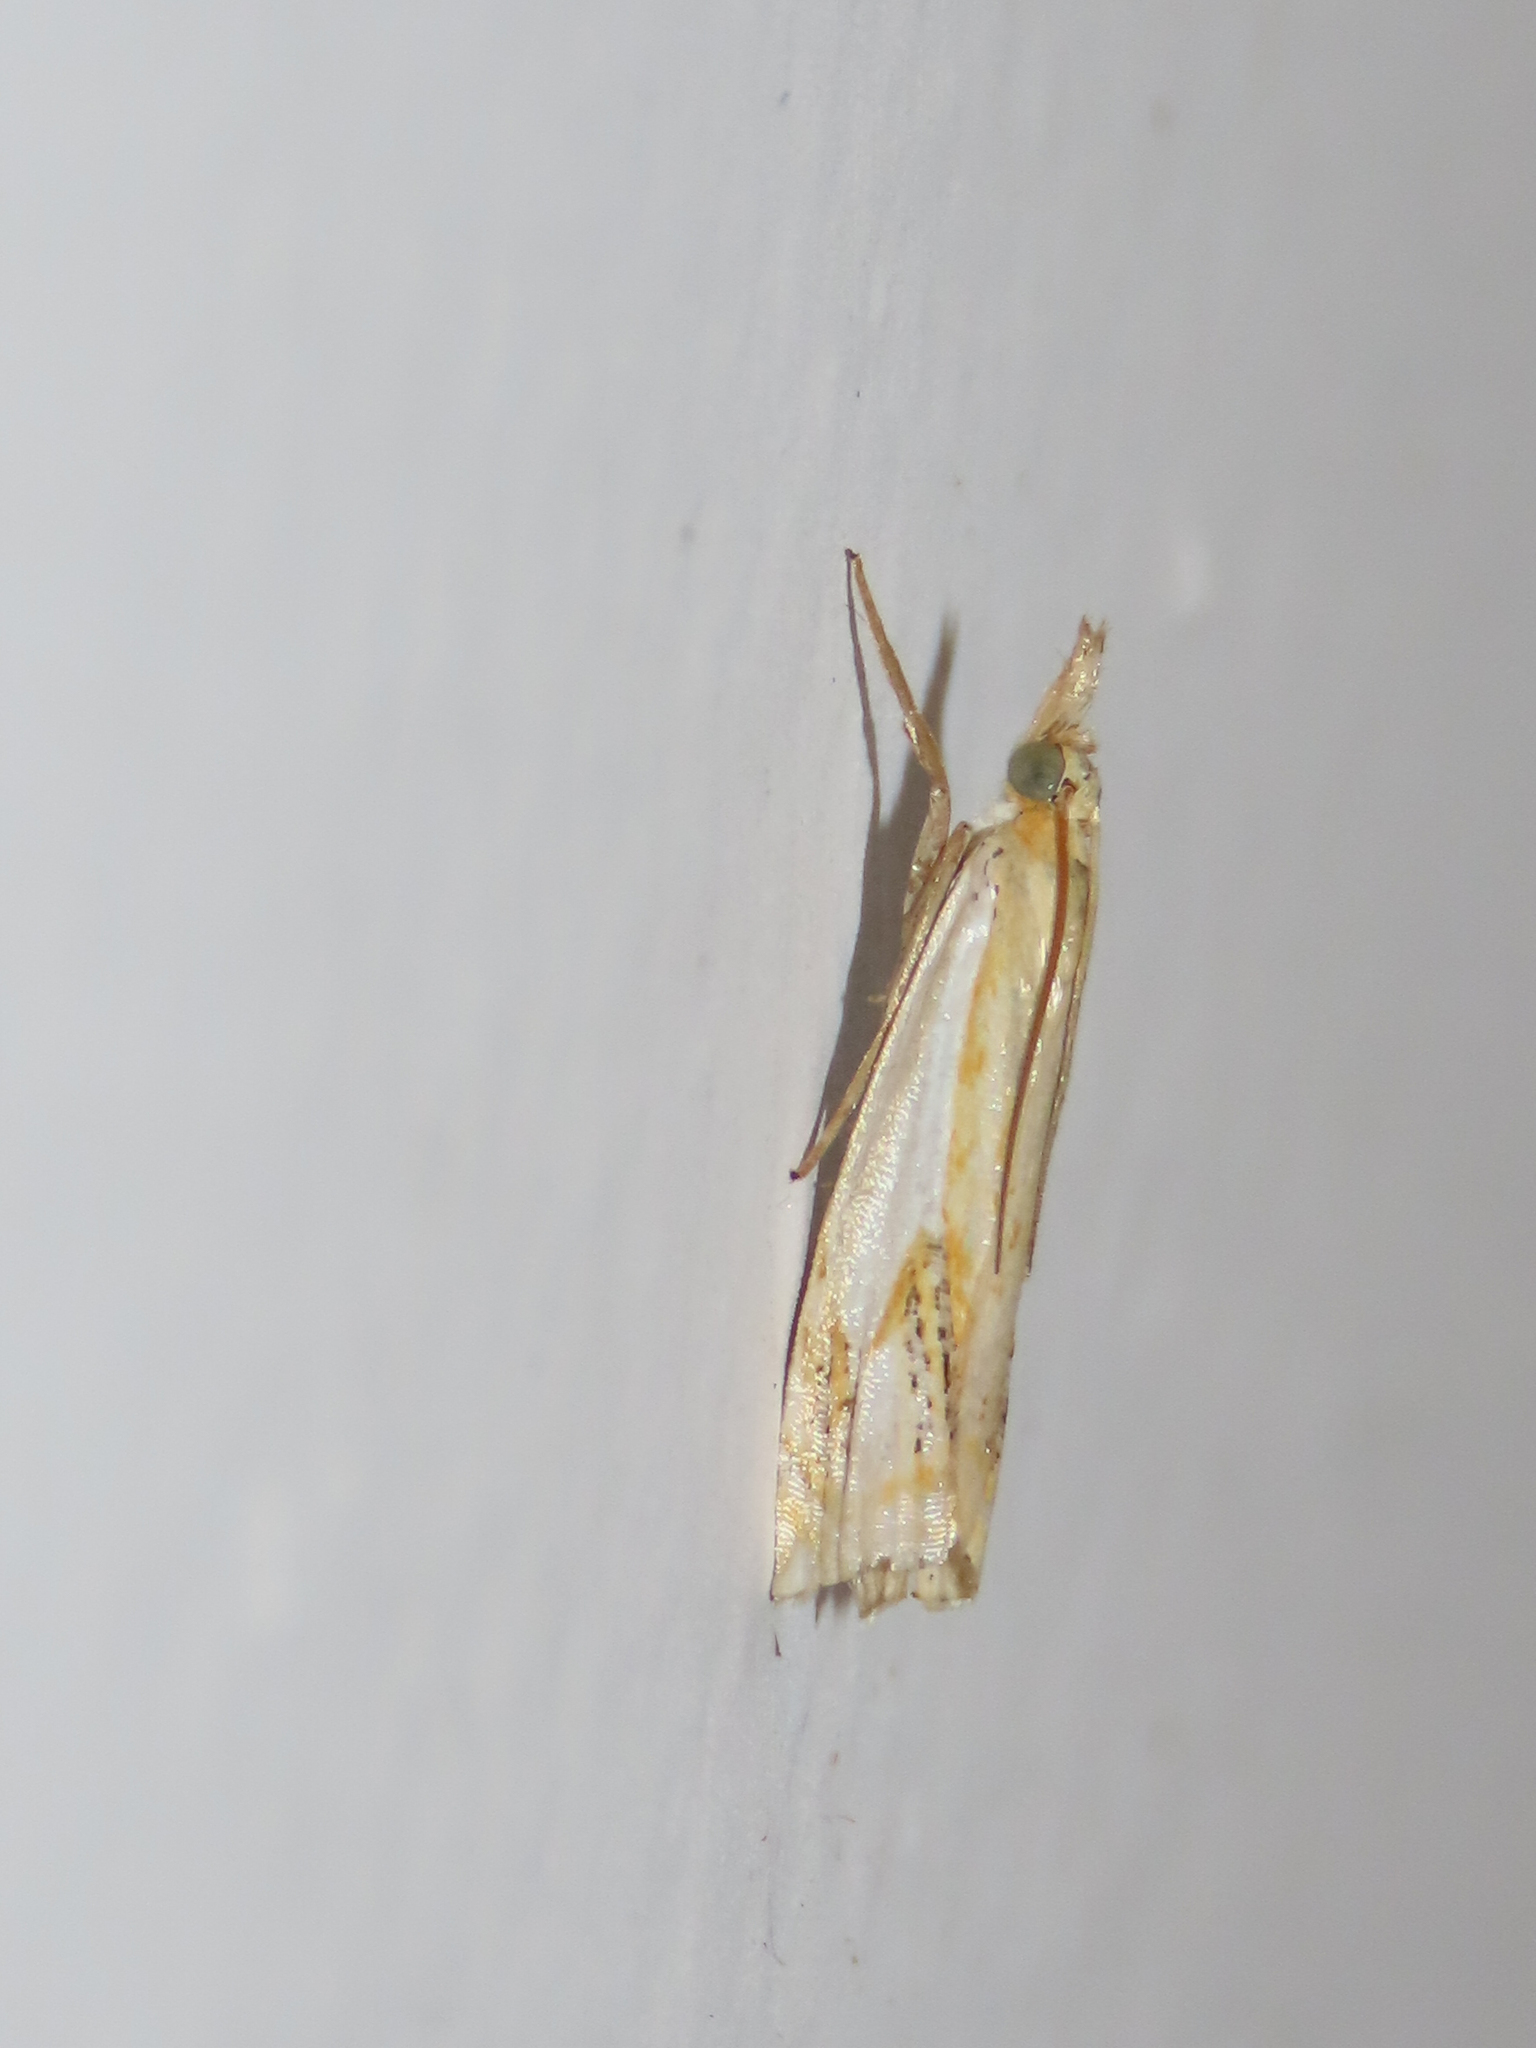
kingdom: Animalia
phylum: Arthropoda
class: Insecta
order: Lepidoptera
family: Crambidae
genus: Crambus
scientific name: Crambus agitatellus
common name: Double-banded grass-veneer
